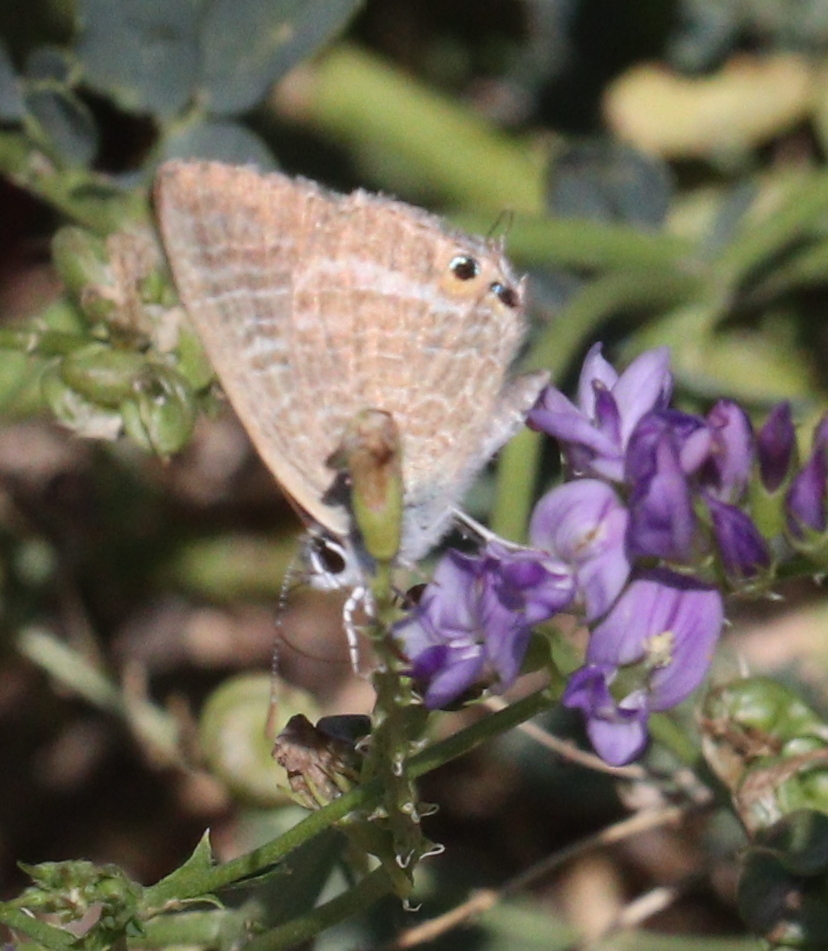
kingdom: Animalia
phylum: Arthropoda
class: Insecta
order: Lepidoptera
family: Lycaenidae
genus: Lampides
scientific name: Lampides boeticus
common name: Long-tailed blue
